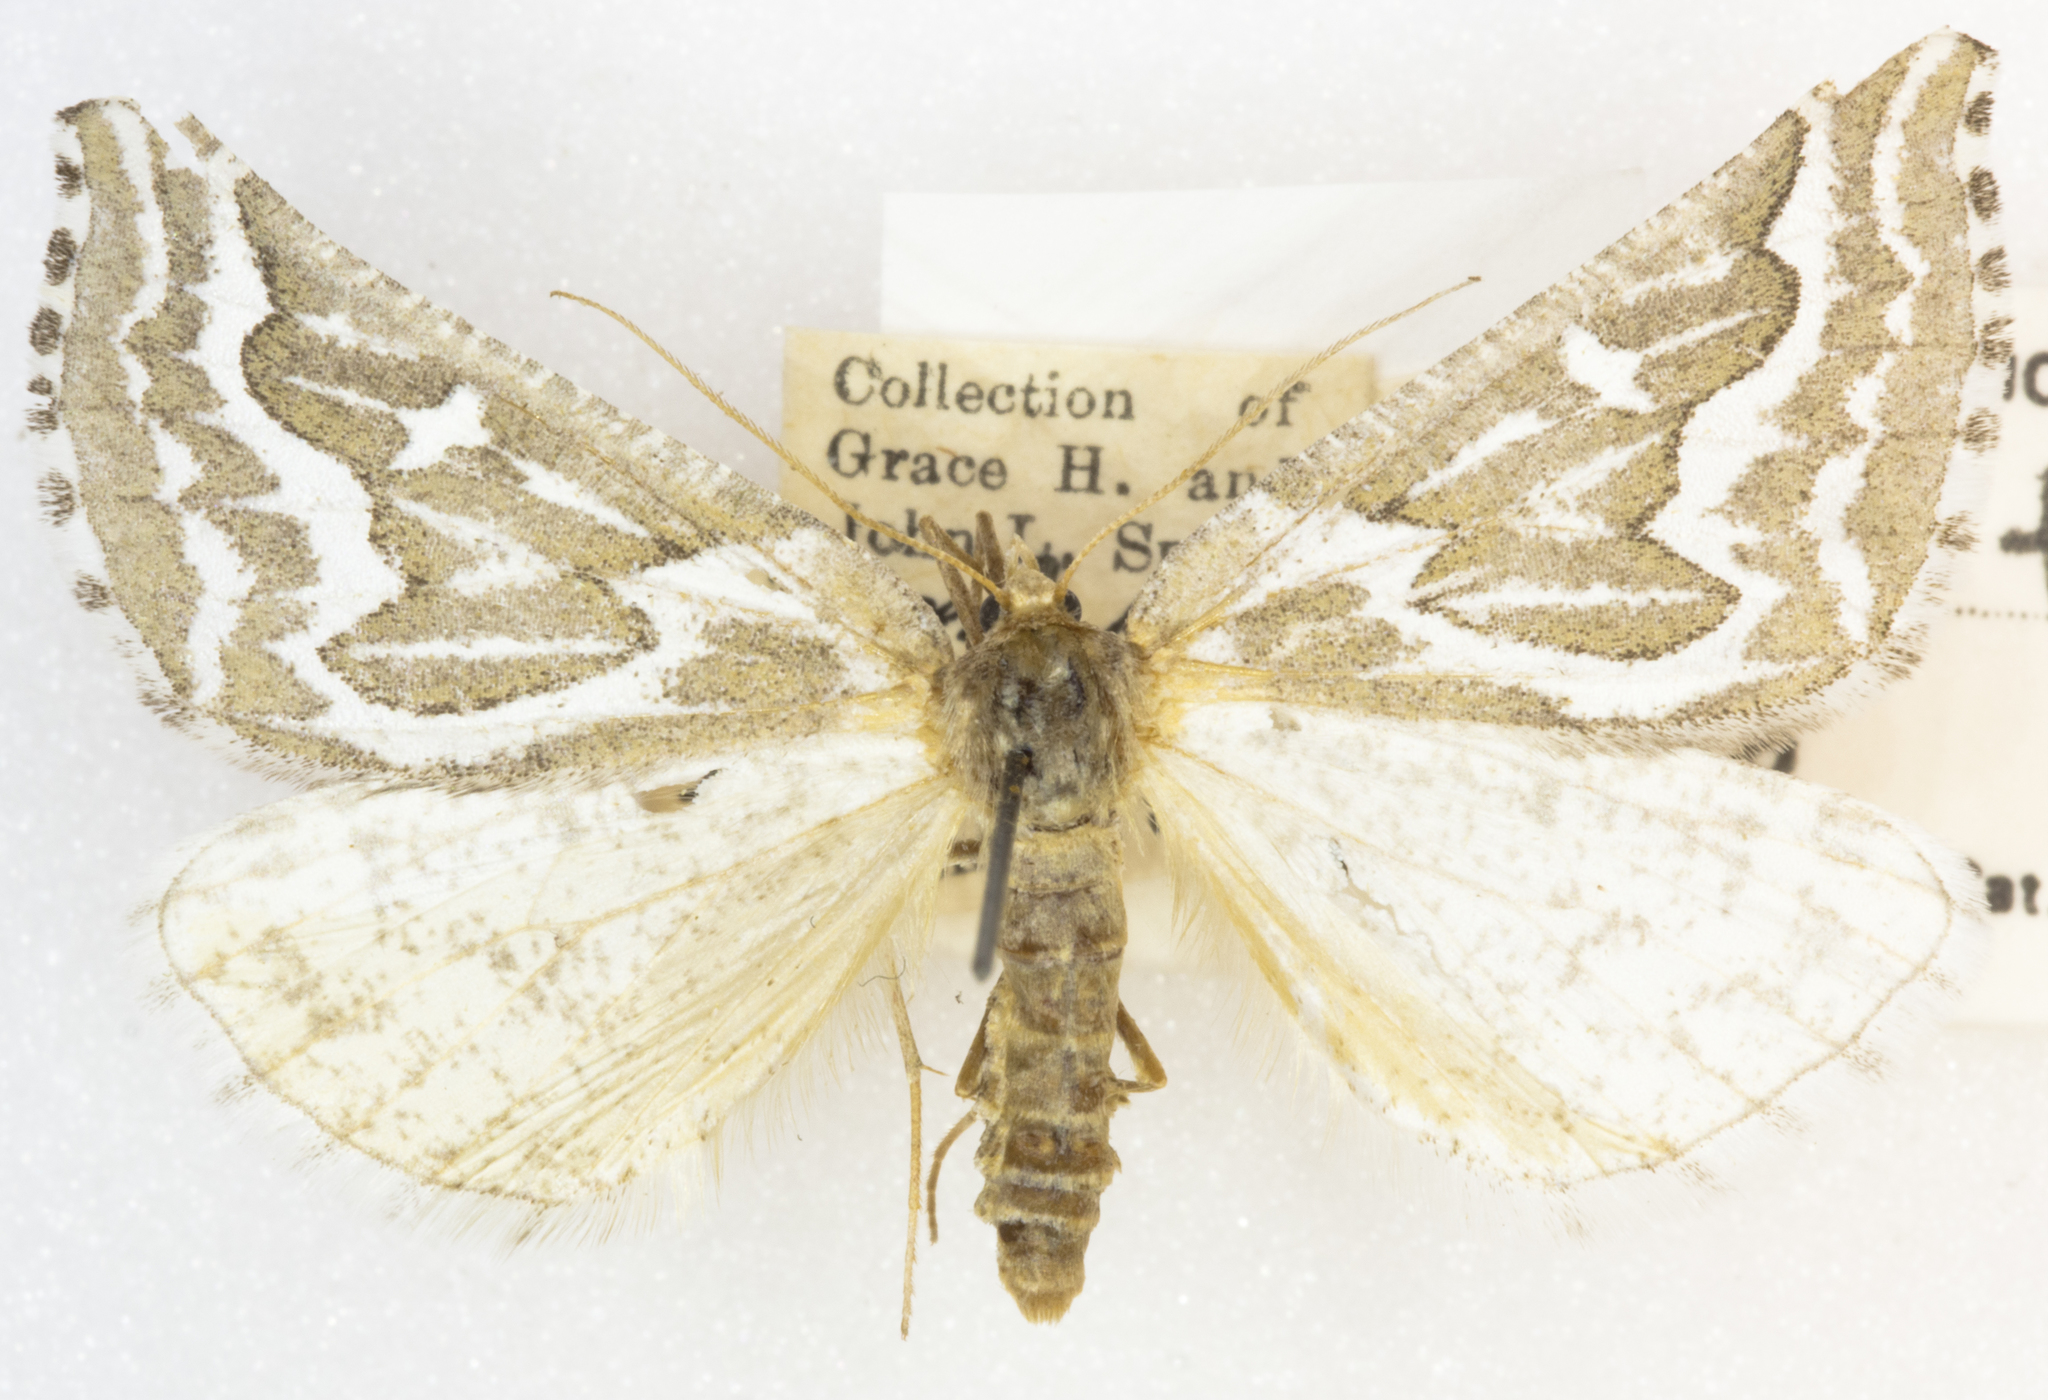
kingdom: Animalia
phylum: Arthropoda
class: Insecta
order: Lepidoptera
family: Geometridae
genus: Plataea
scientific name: Plataea trilinearia
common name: Sagebrush girdle moth
